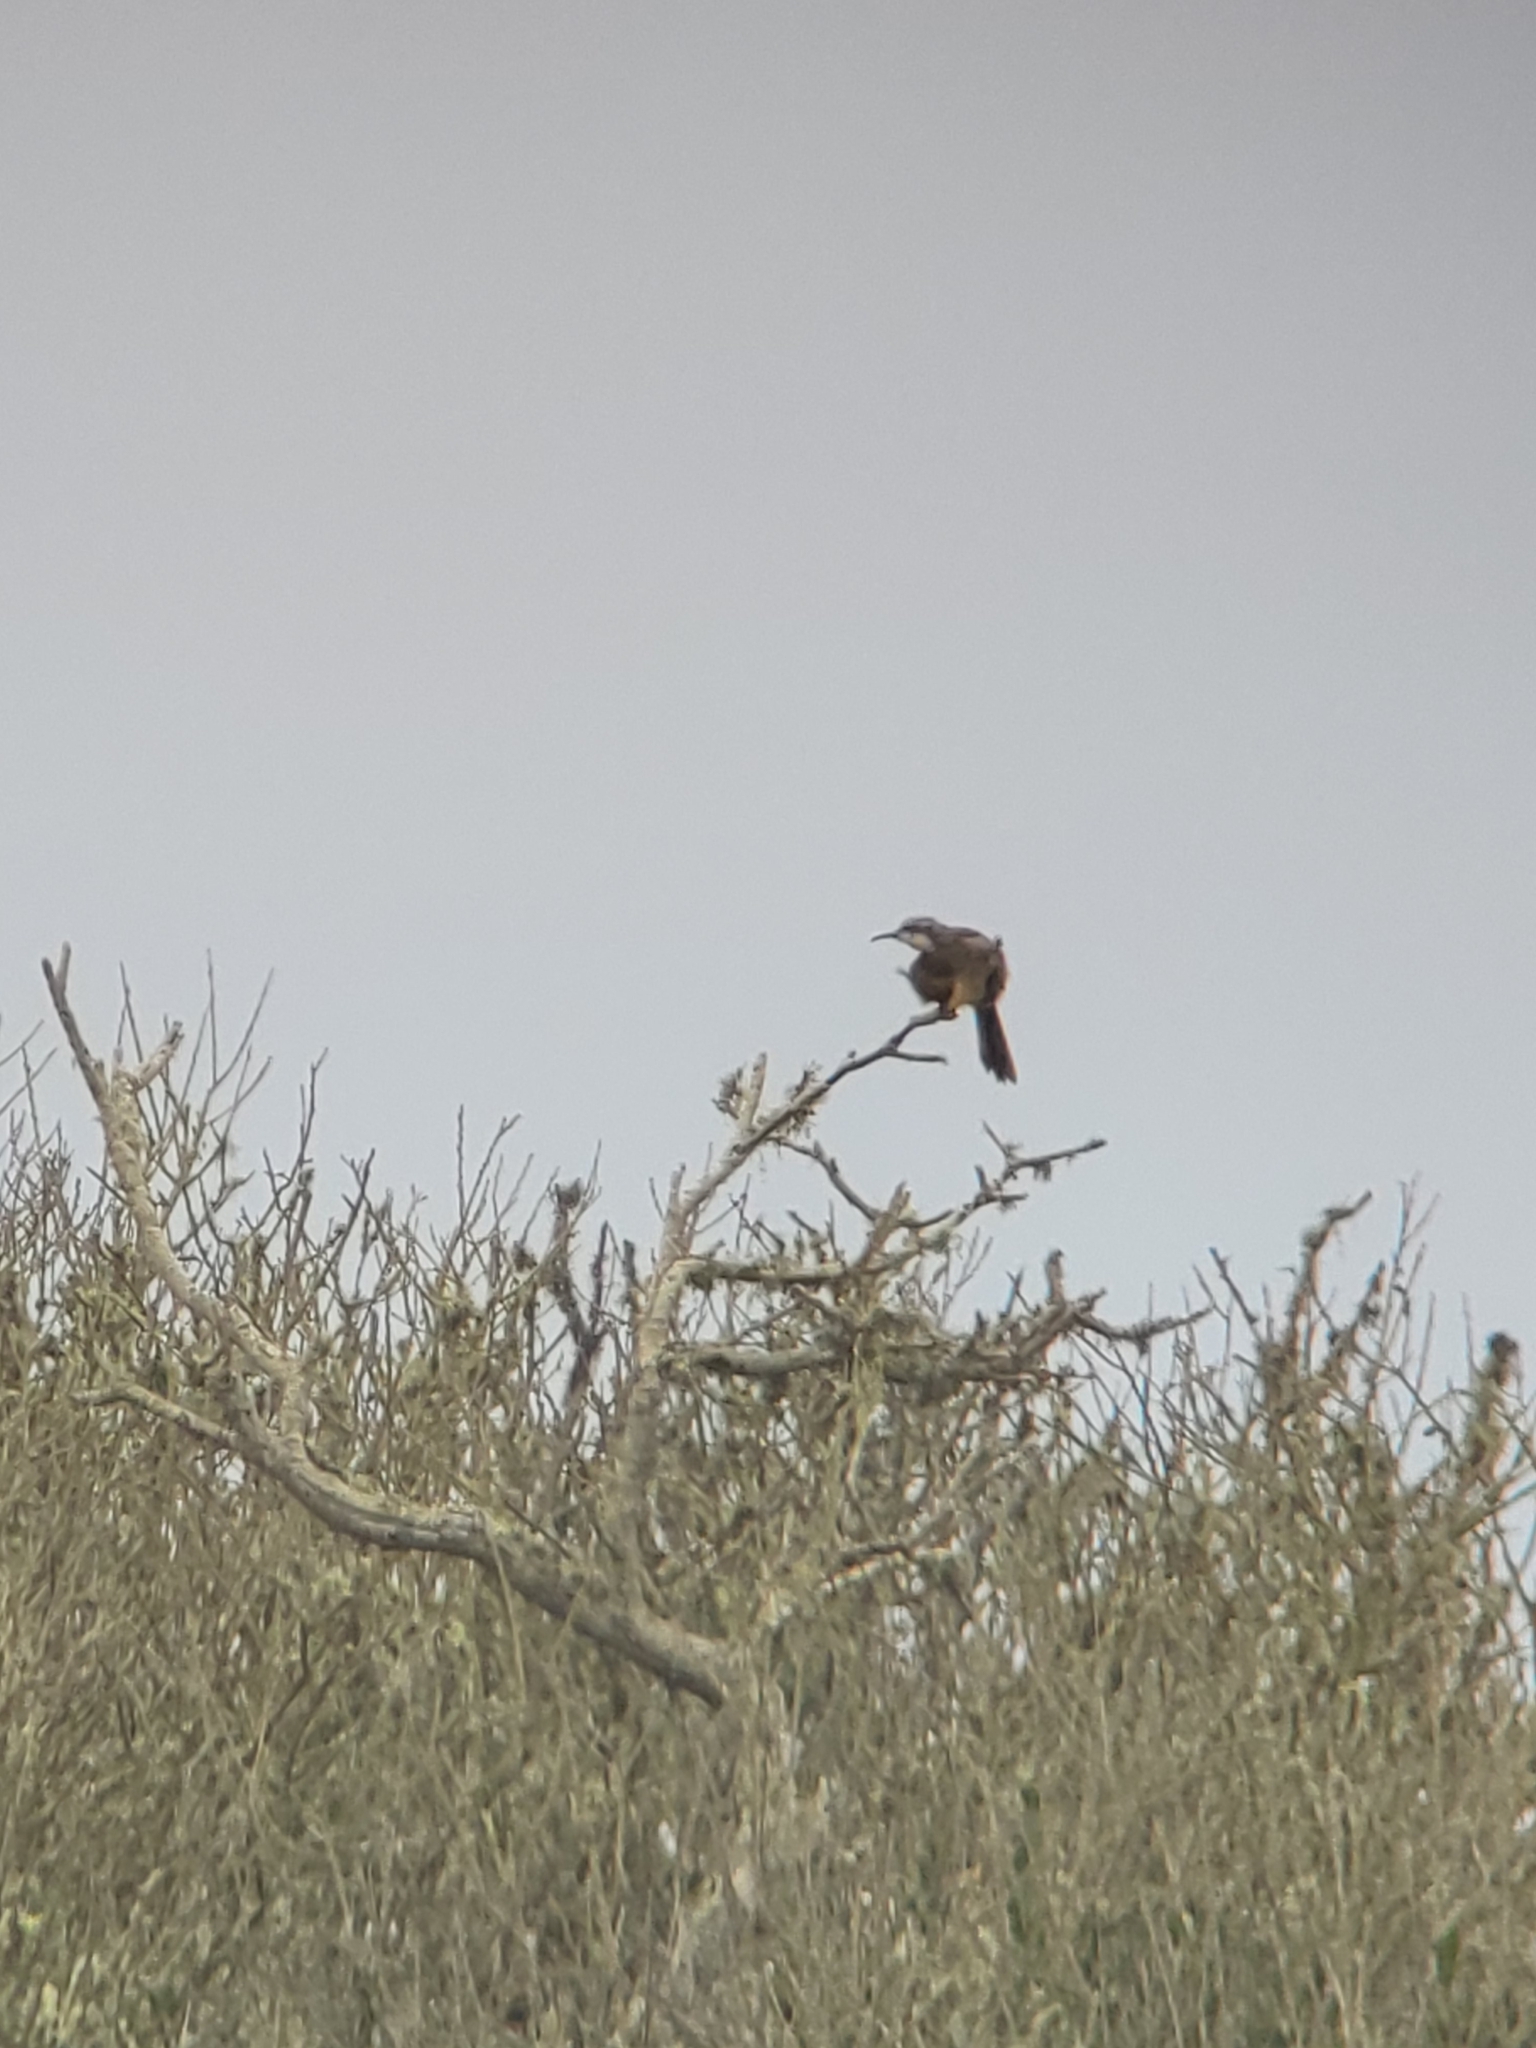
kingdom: Animalia
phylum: Chordata
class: Aves
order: Passeriformes
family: Mimidae
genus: Toxostoma
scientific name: Toxostoma redivivum
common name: California thrasher
